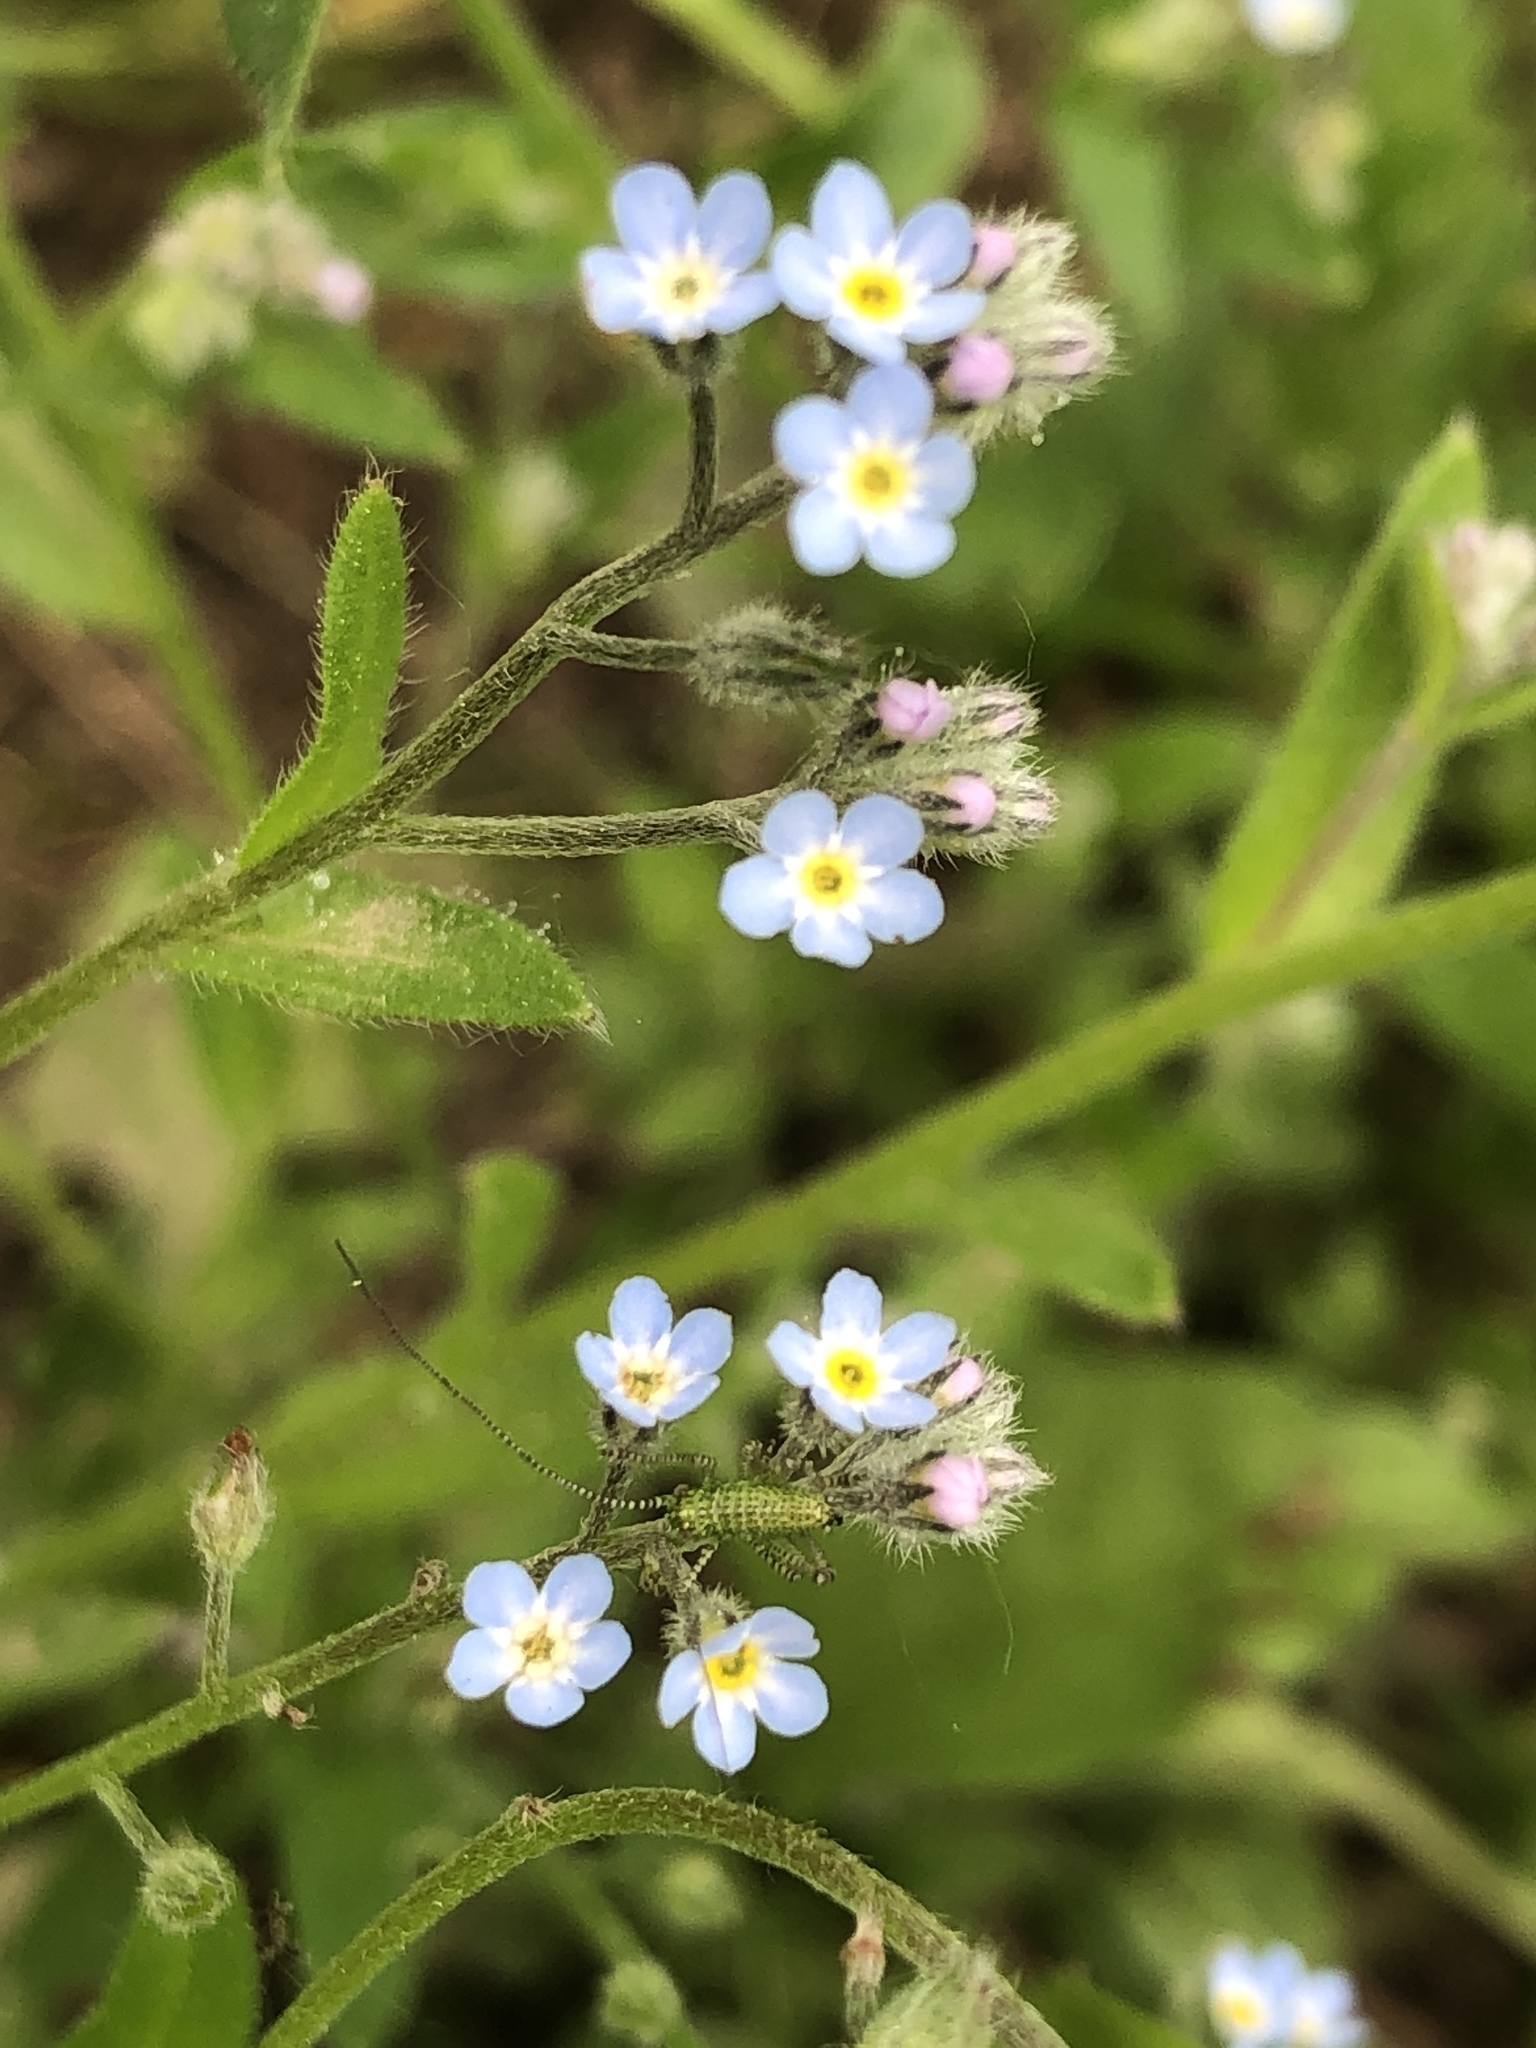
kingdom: Plantae
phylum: Tracheophyta
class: Magnoliopsida
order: Boraginales
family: Boraginaceae
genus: Myosotis
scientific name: Myosotis arvensis
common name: Field forget-me-not
